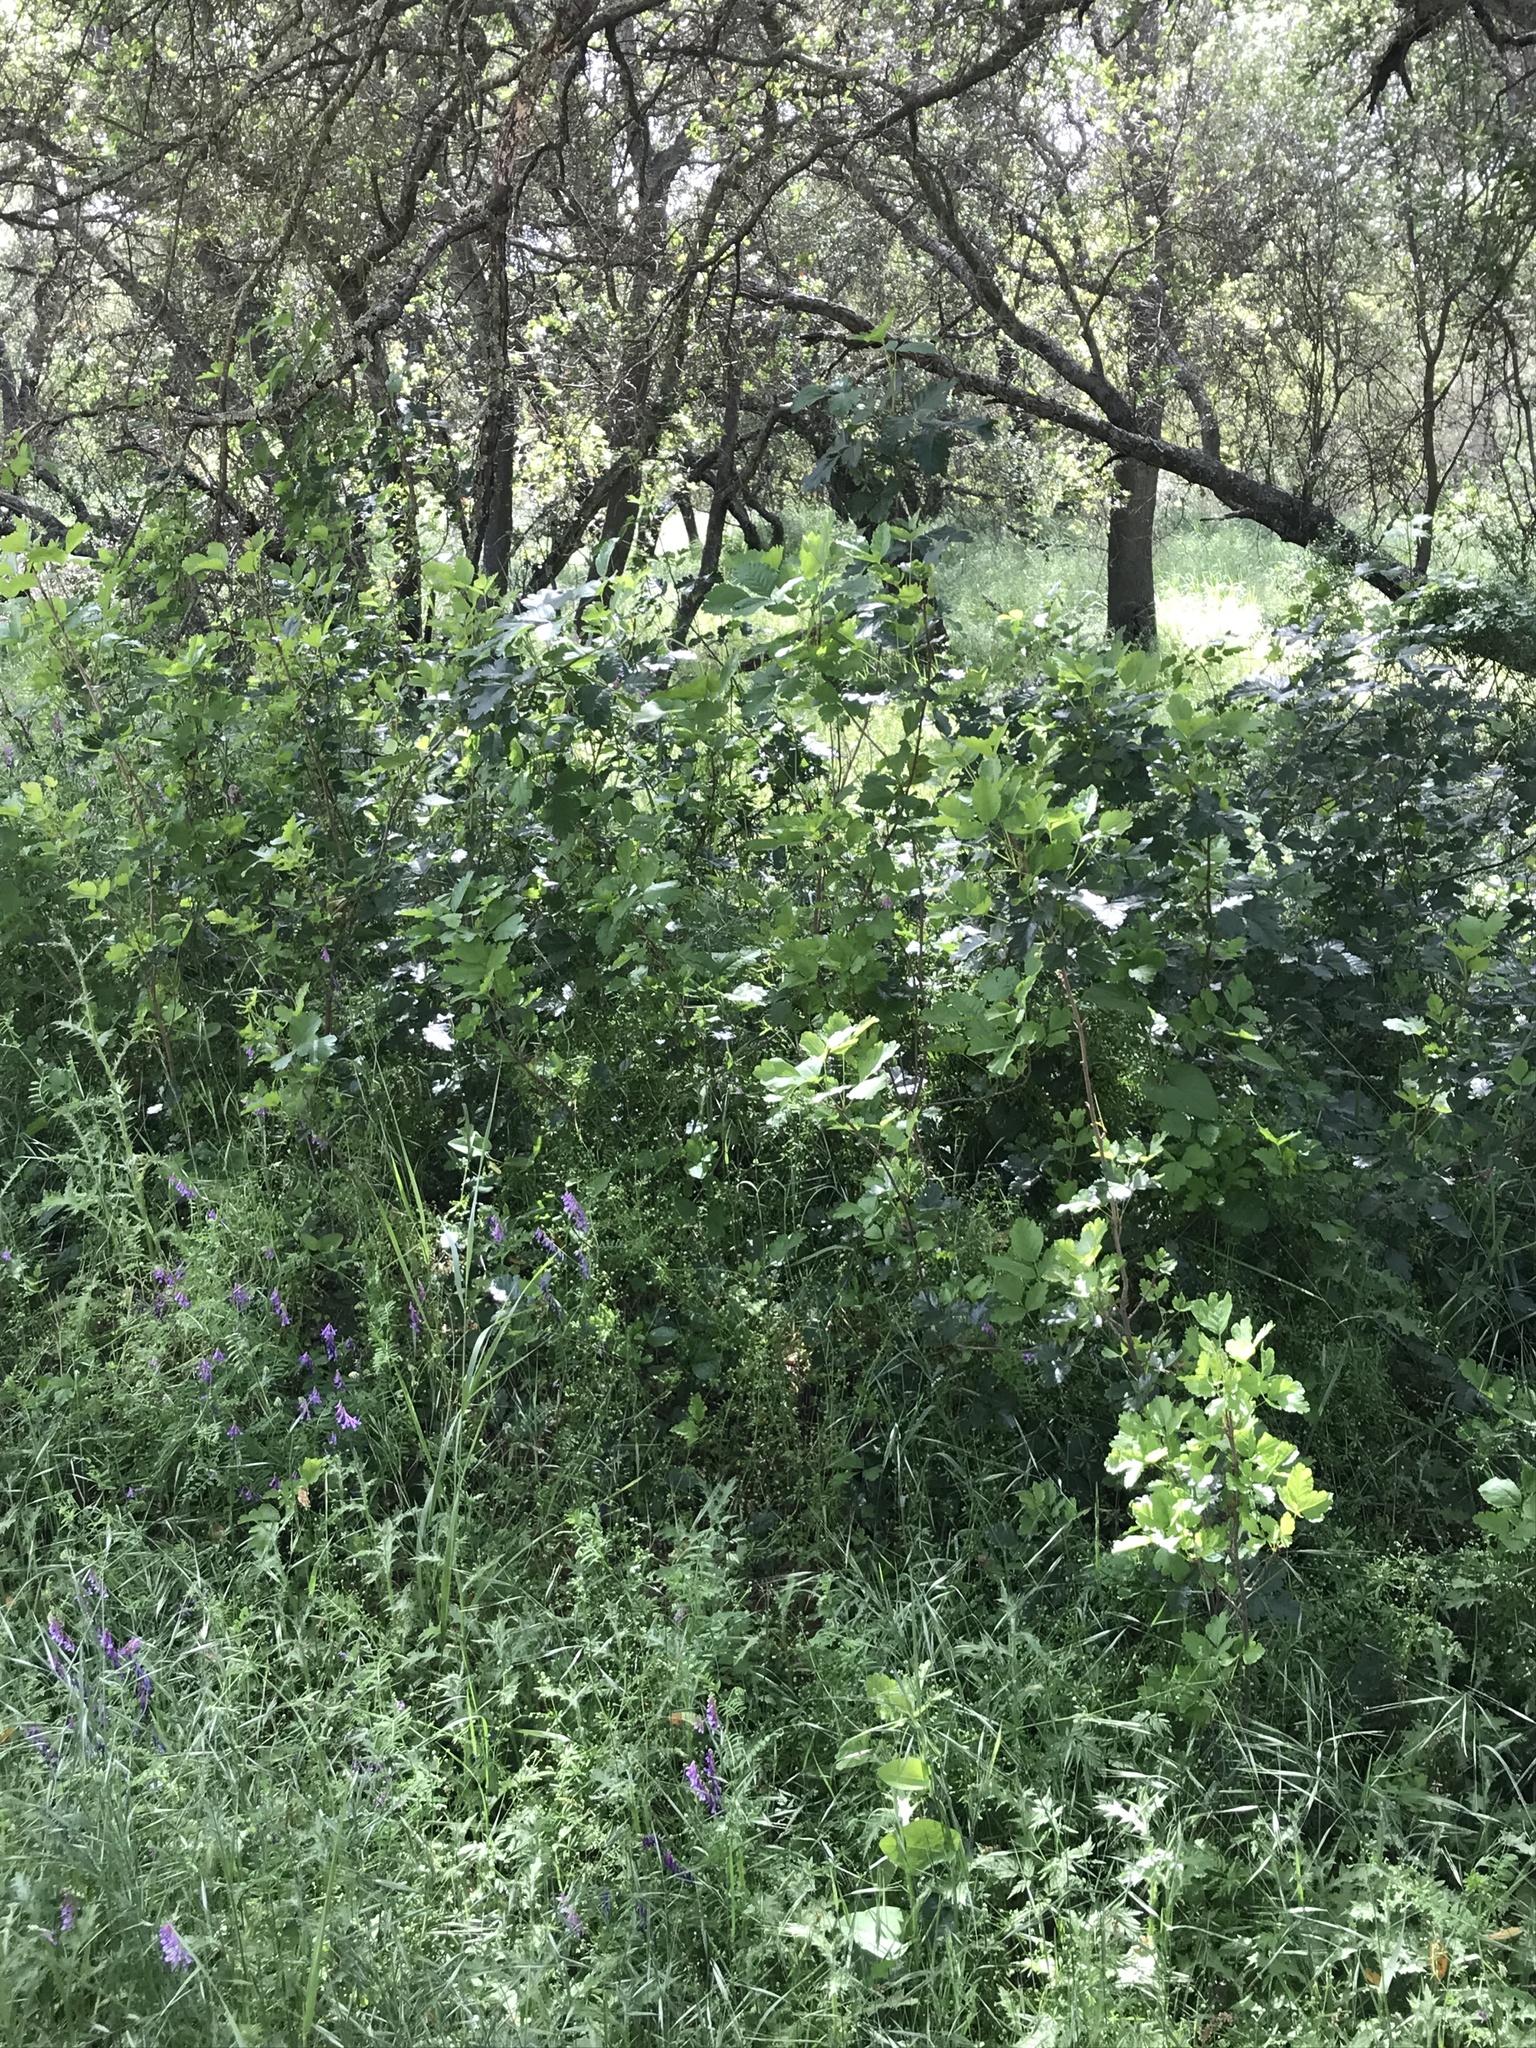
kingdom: Plantae
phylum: Tracheophyta
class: Magnoliopsida
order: Sapindales
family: Anacardiaceae
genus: Toxicodendron
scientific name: Toxicodendron diversilobum
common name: Pacific poison-oak
